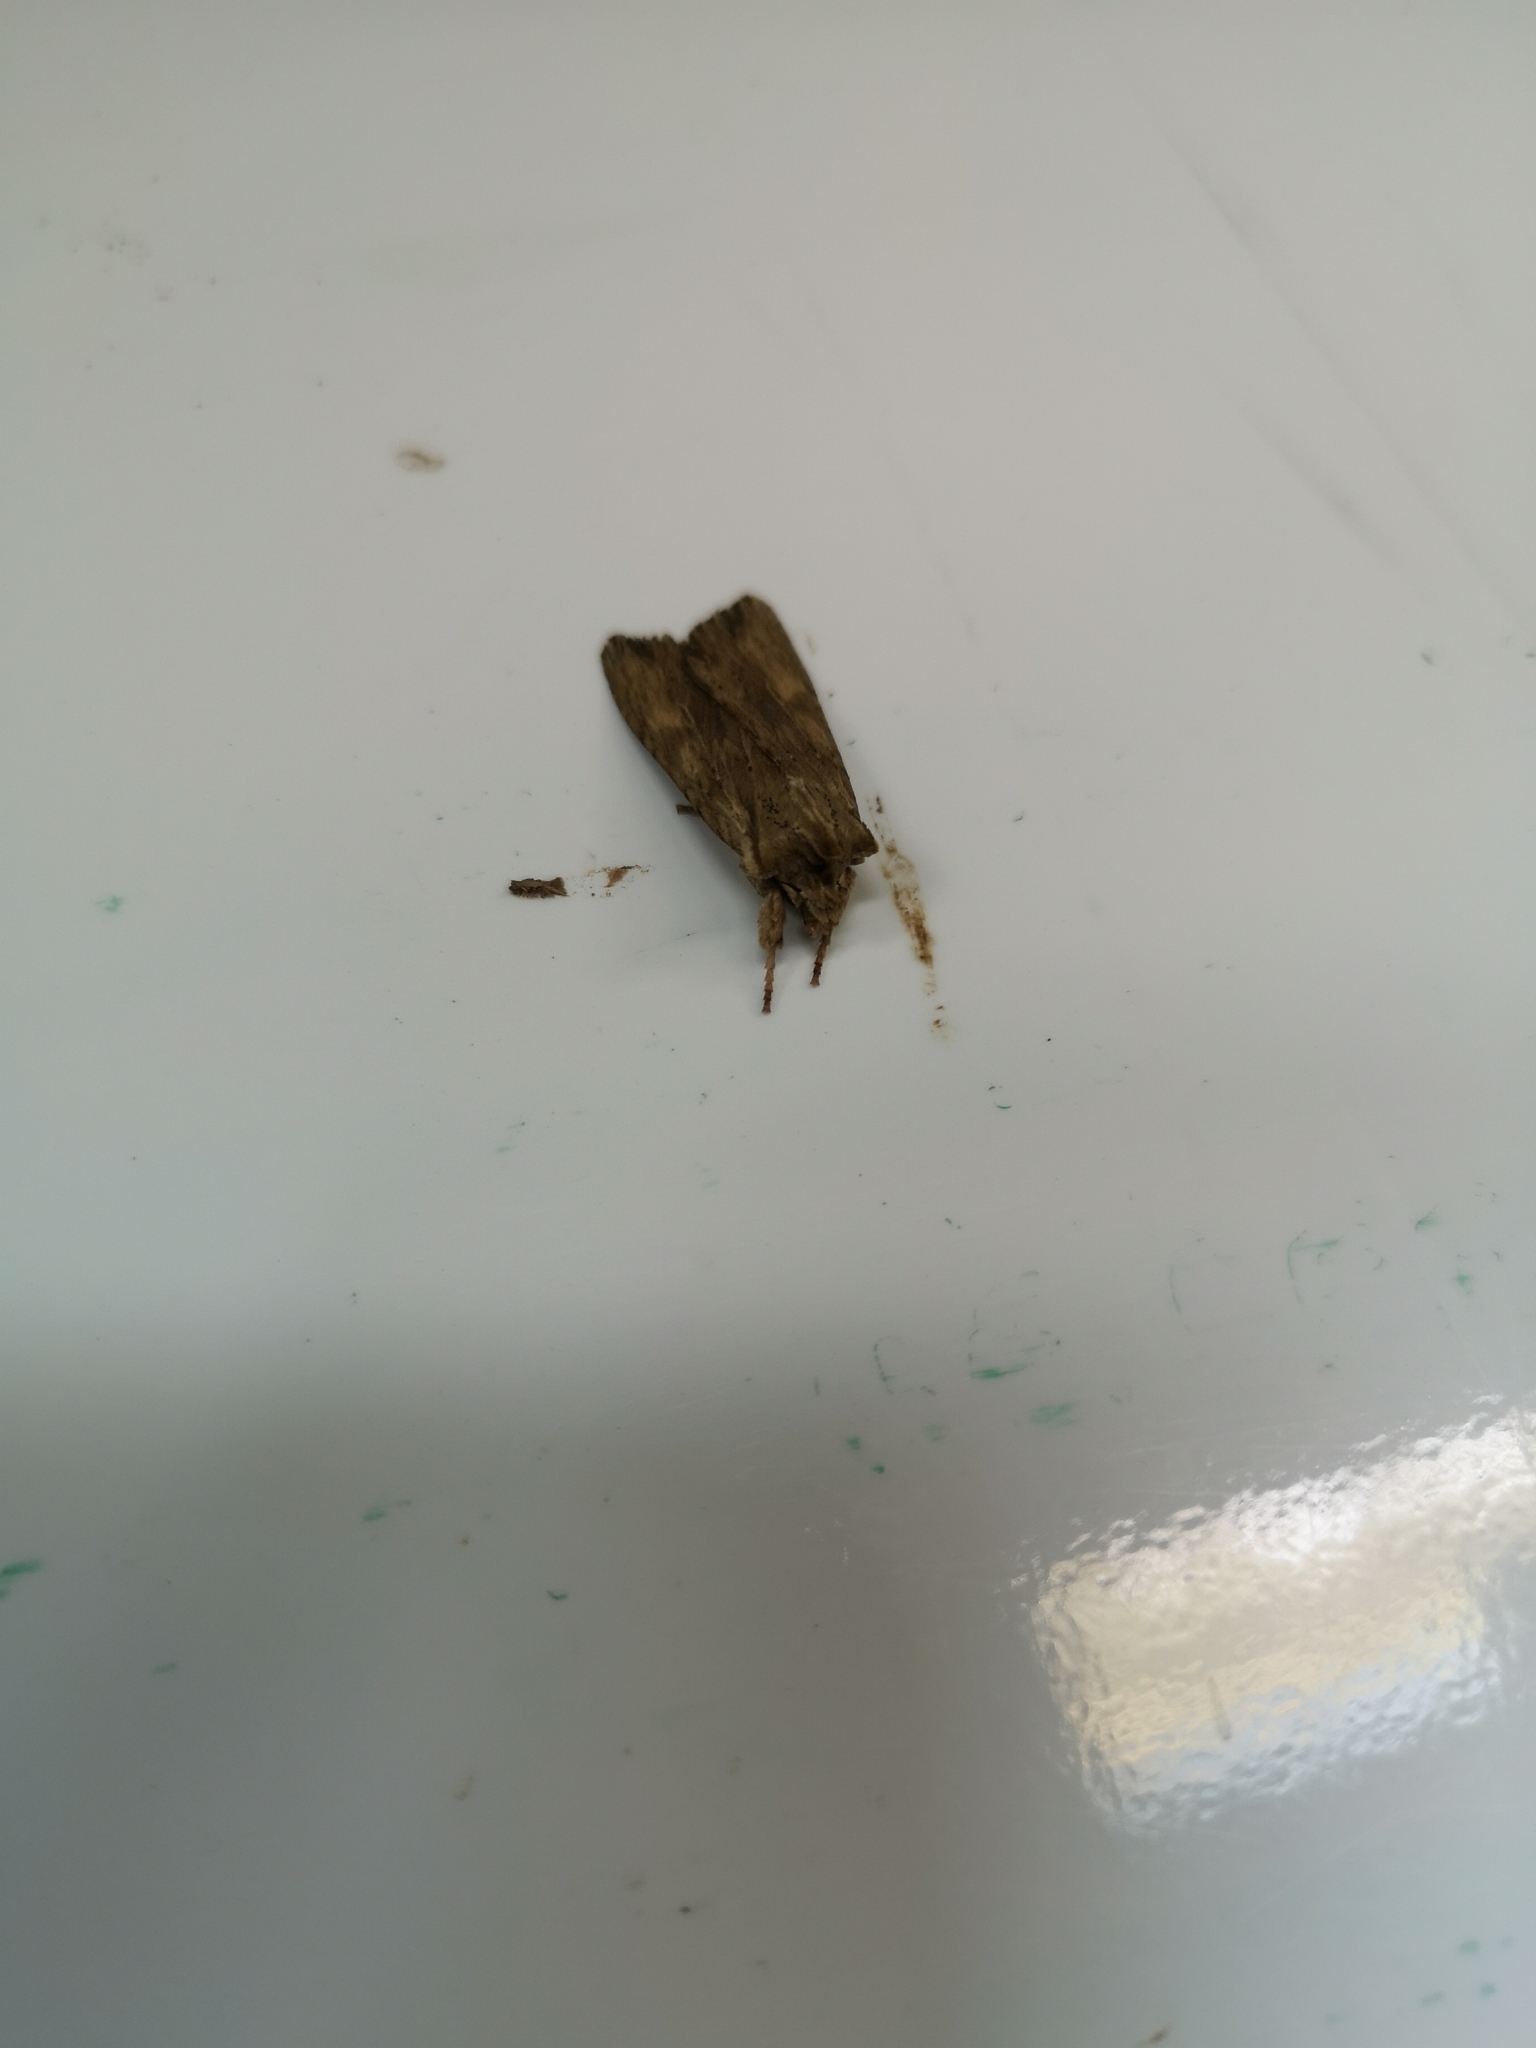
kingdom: Animalia
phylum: Arthropoda
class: Insecta
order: Lepidoptera
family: Noctuidae
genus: Lithophane
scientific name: Lithophane socia
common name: Pale pinion
